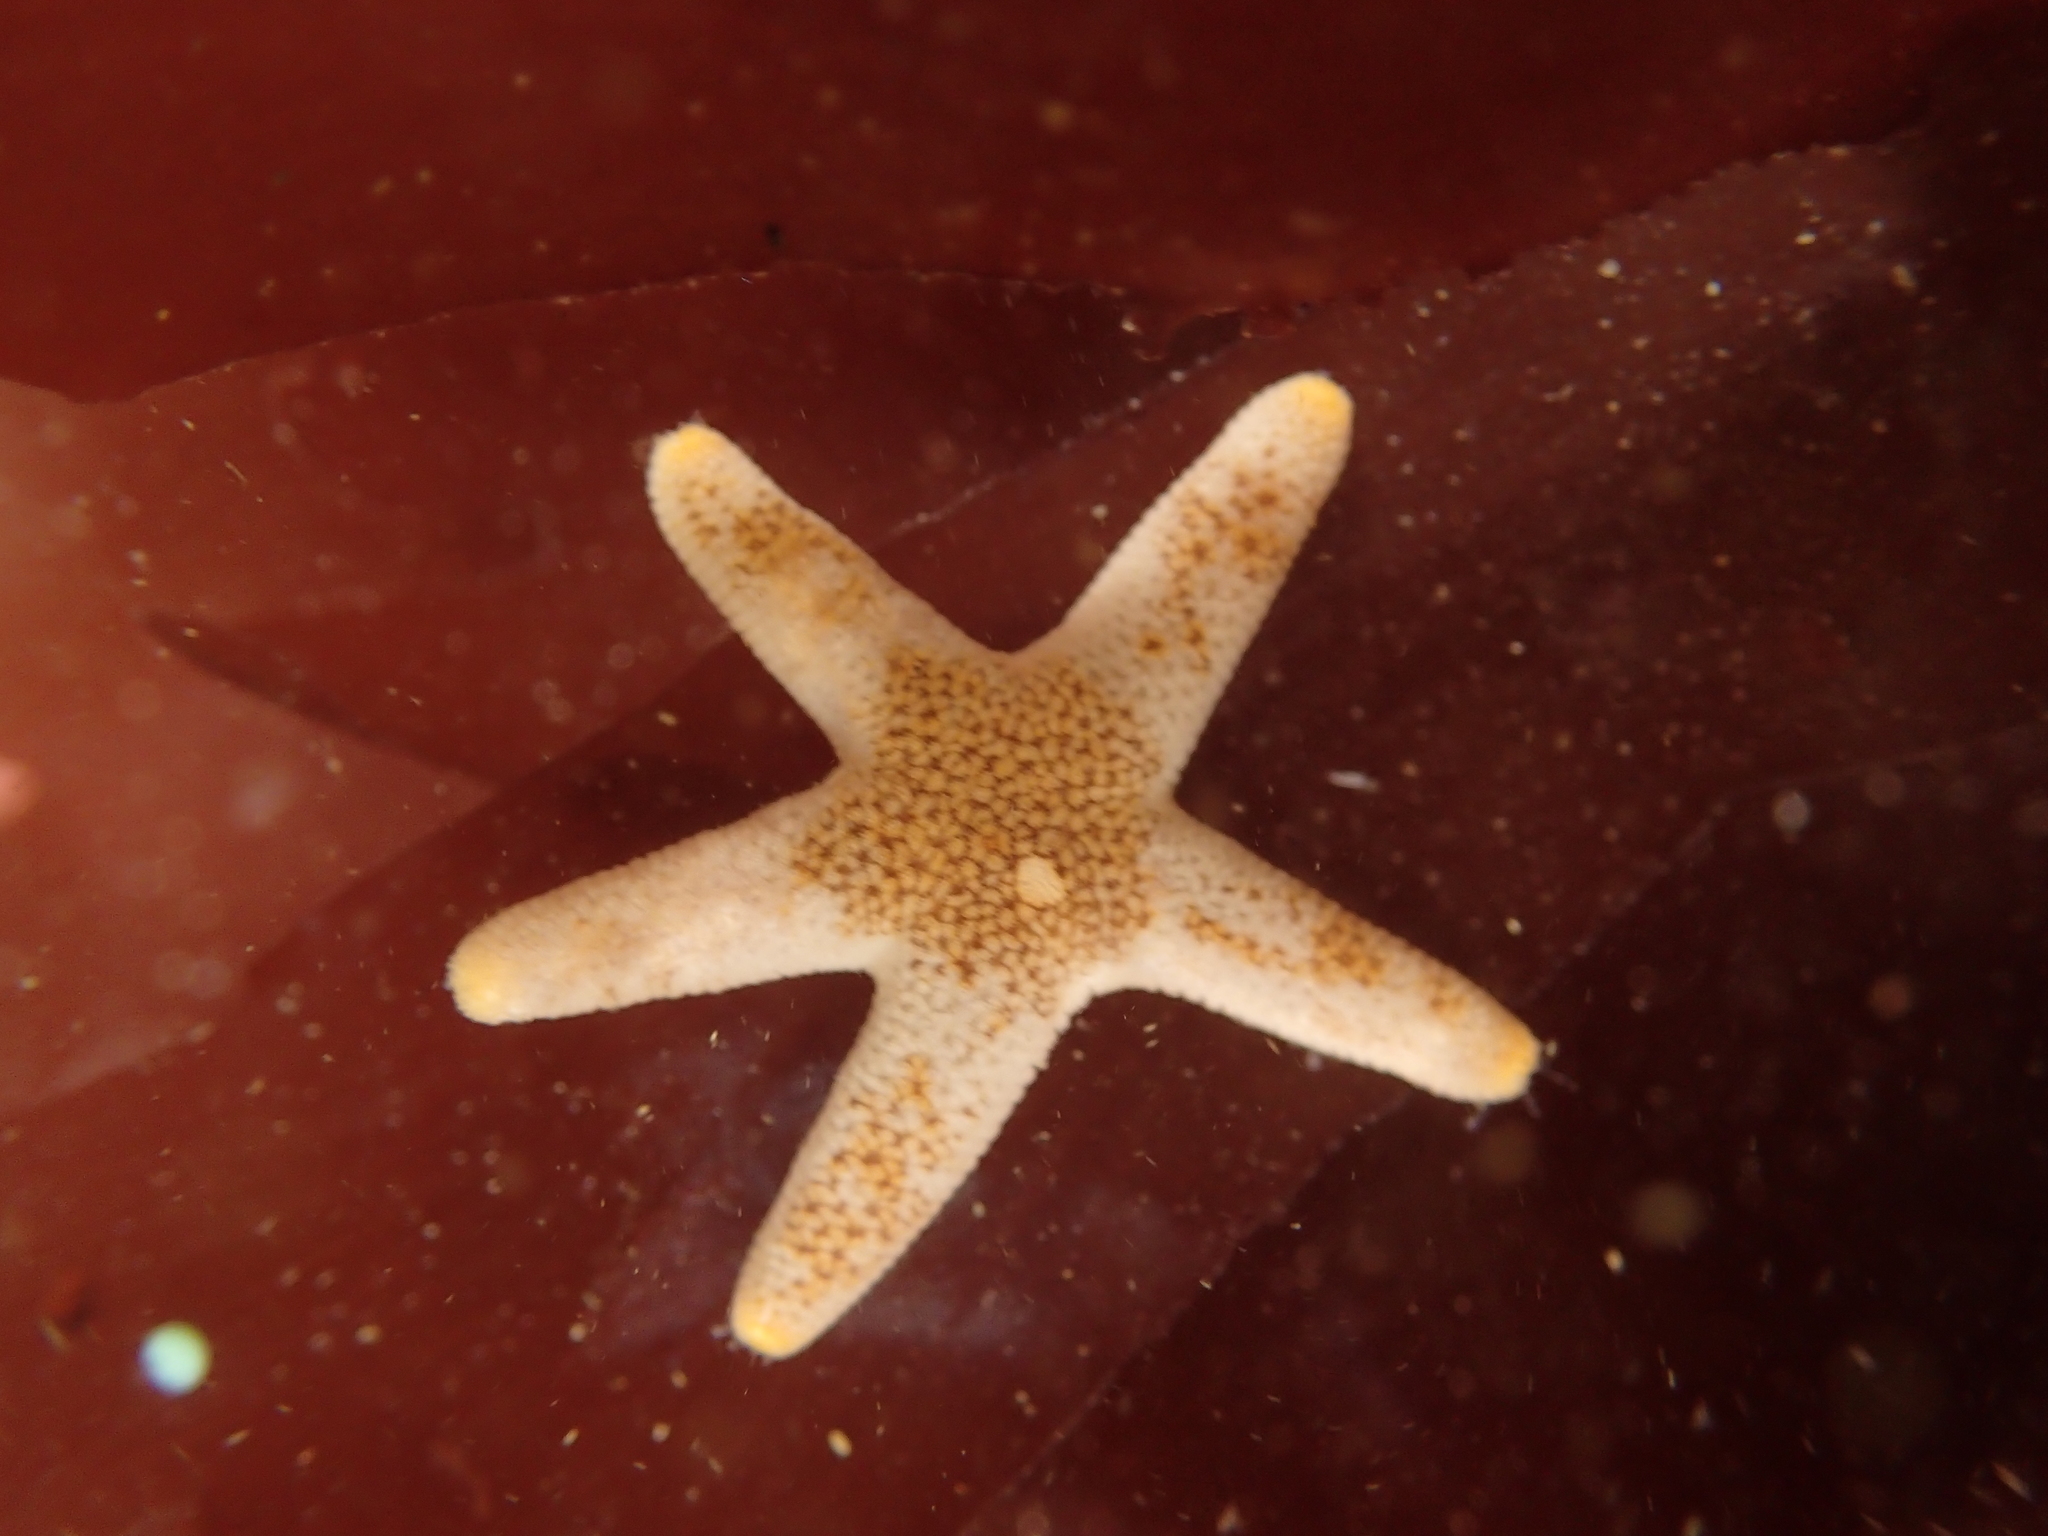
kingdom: Animalia
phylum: Echinodermata
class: Asteroidea
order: Spinulosida
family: Echinasteridae
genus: Henricia
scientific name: Henricia pumila
